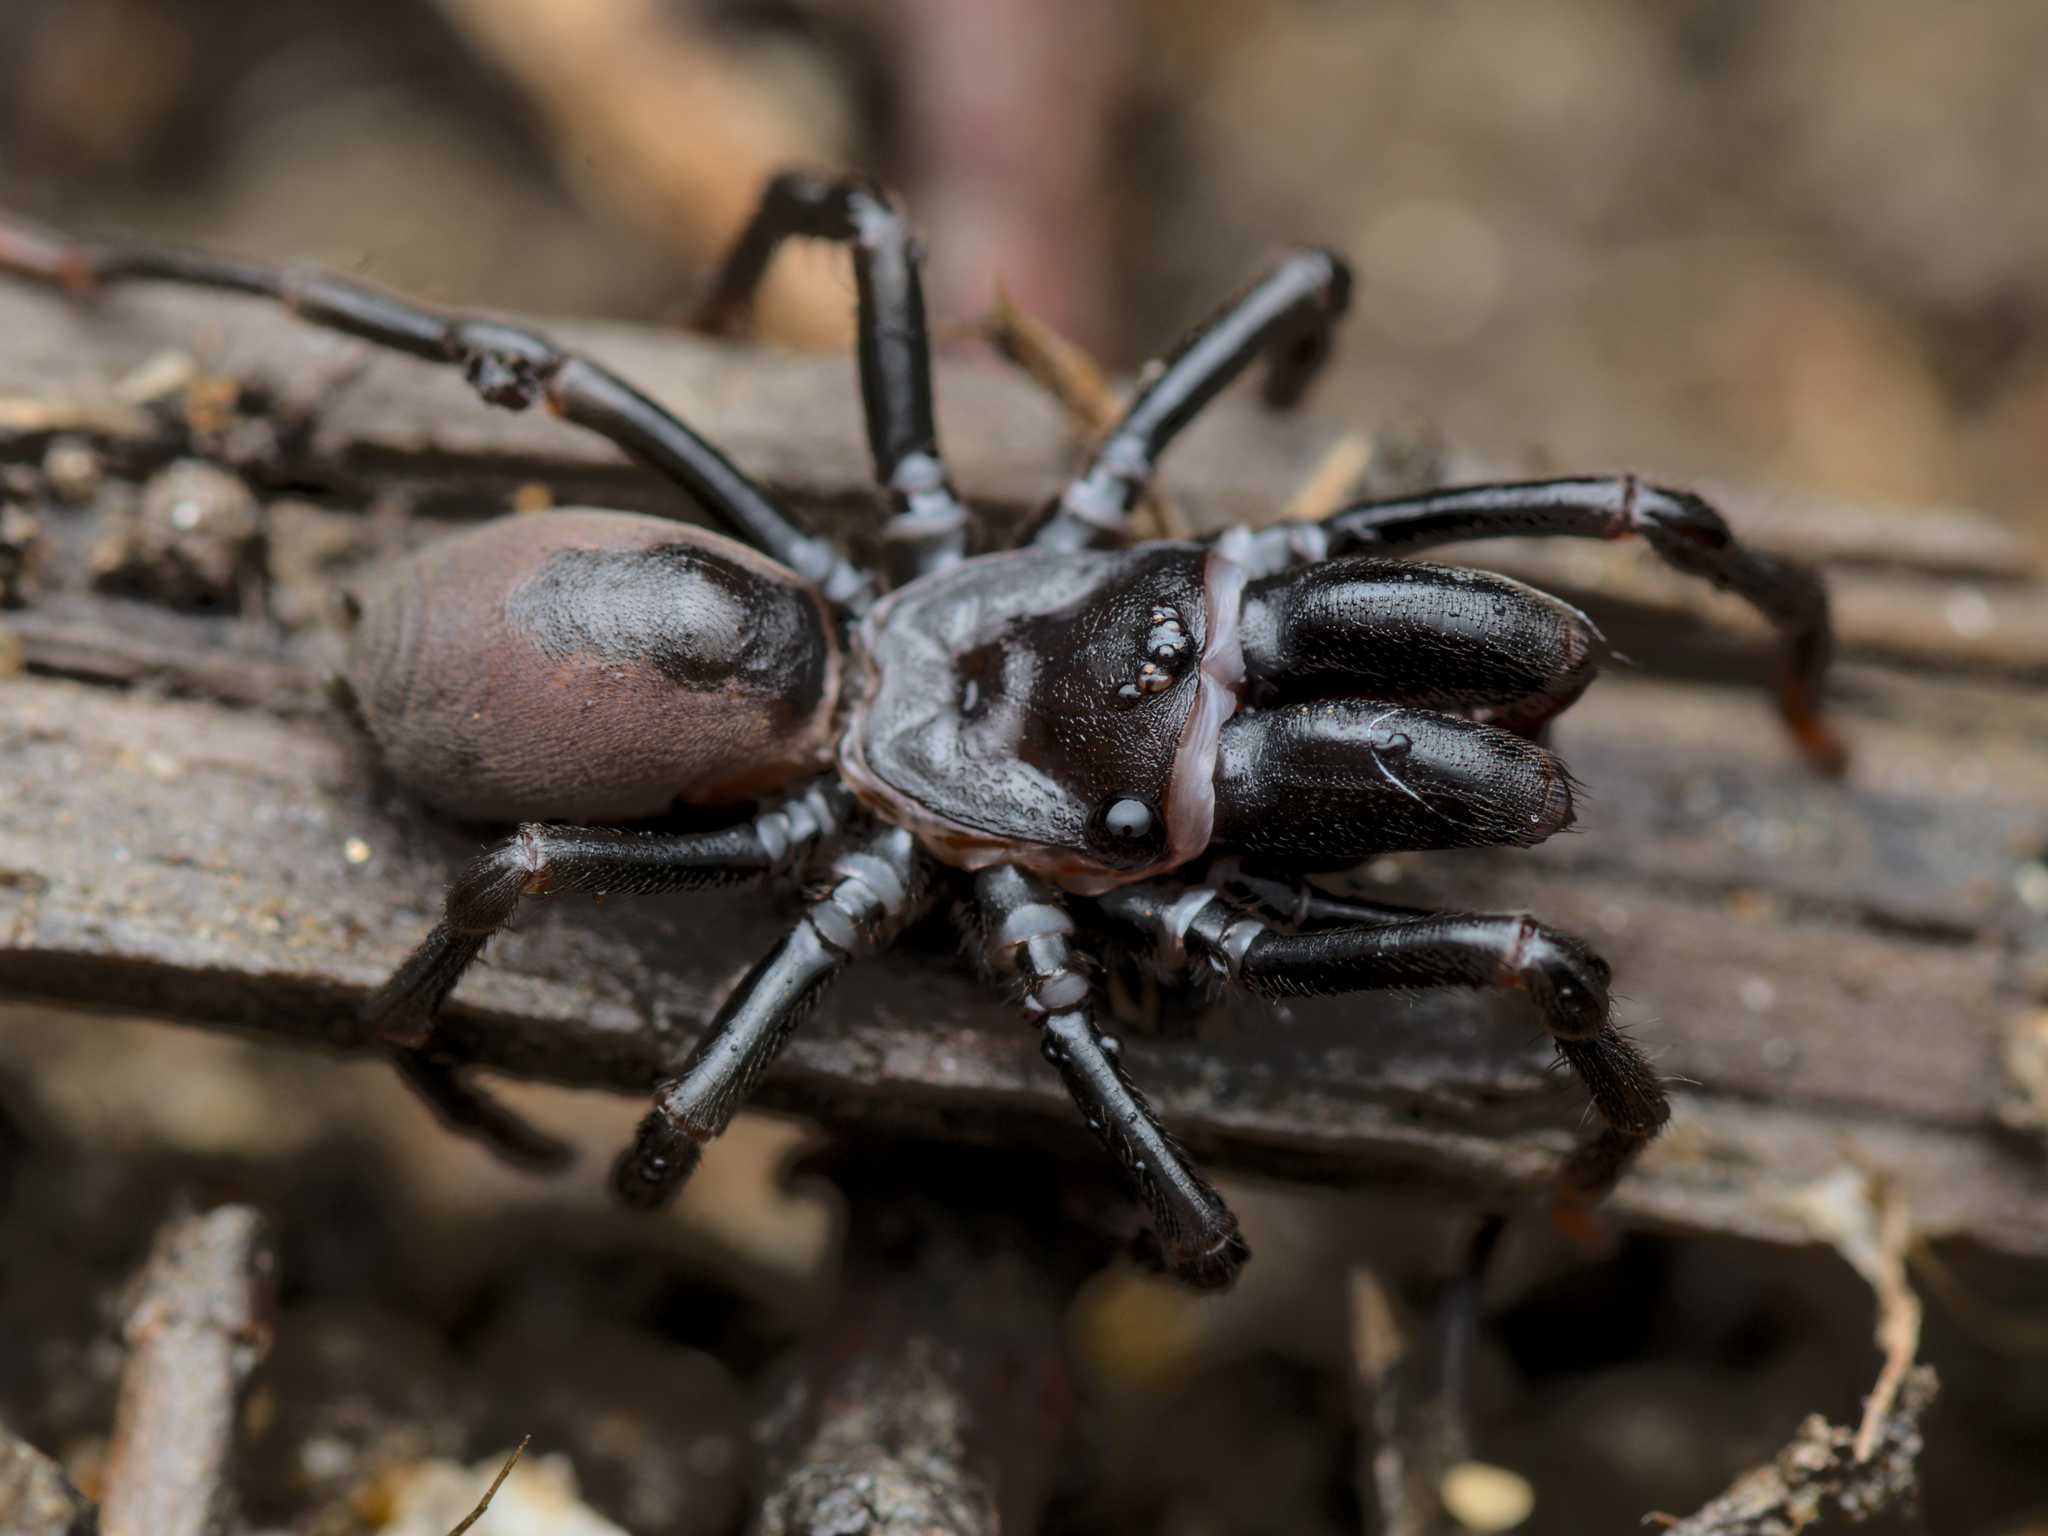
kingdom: Animalia
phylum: Arthropoda
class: Arachnida
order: Araneae
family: Atypidae
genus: Atypus
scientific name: Atypus
